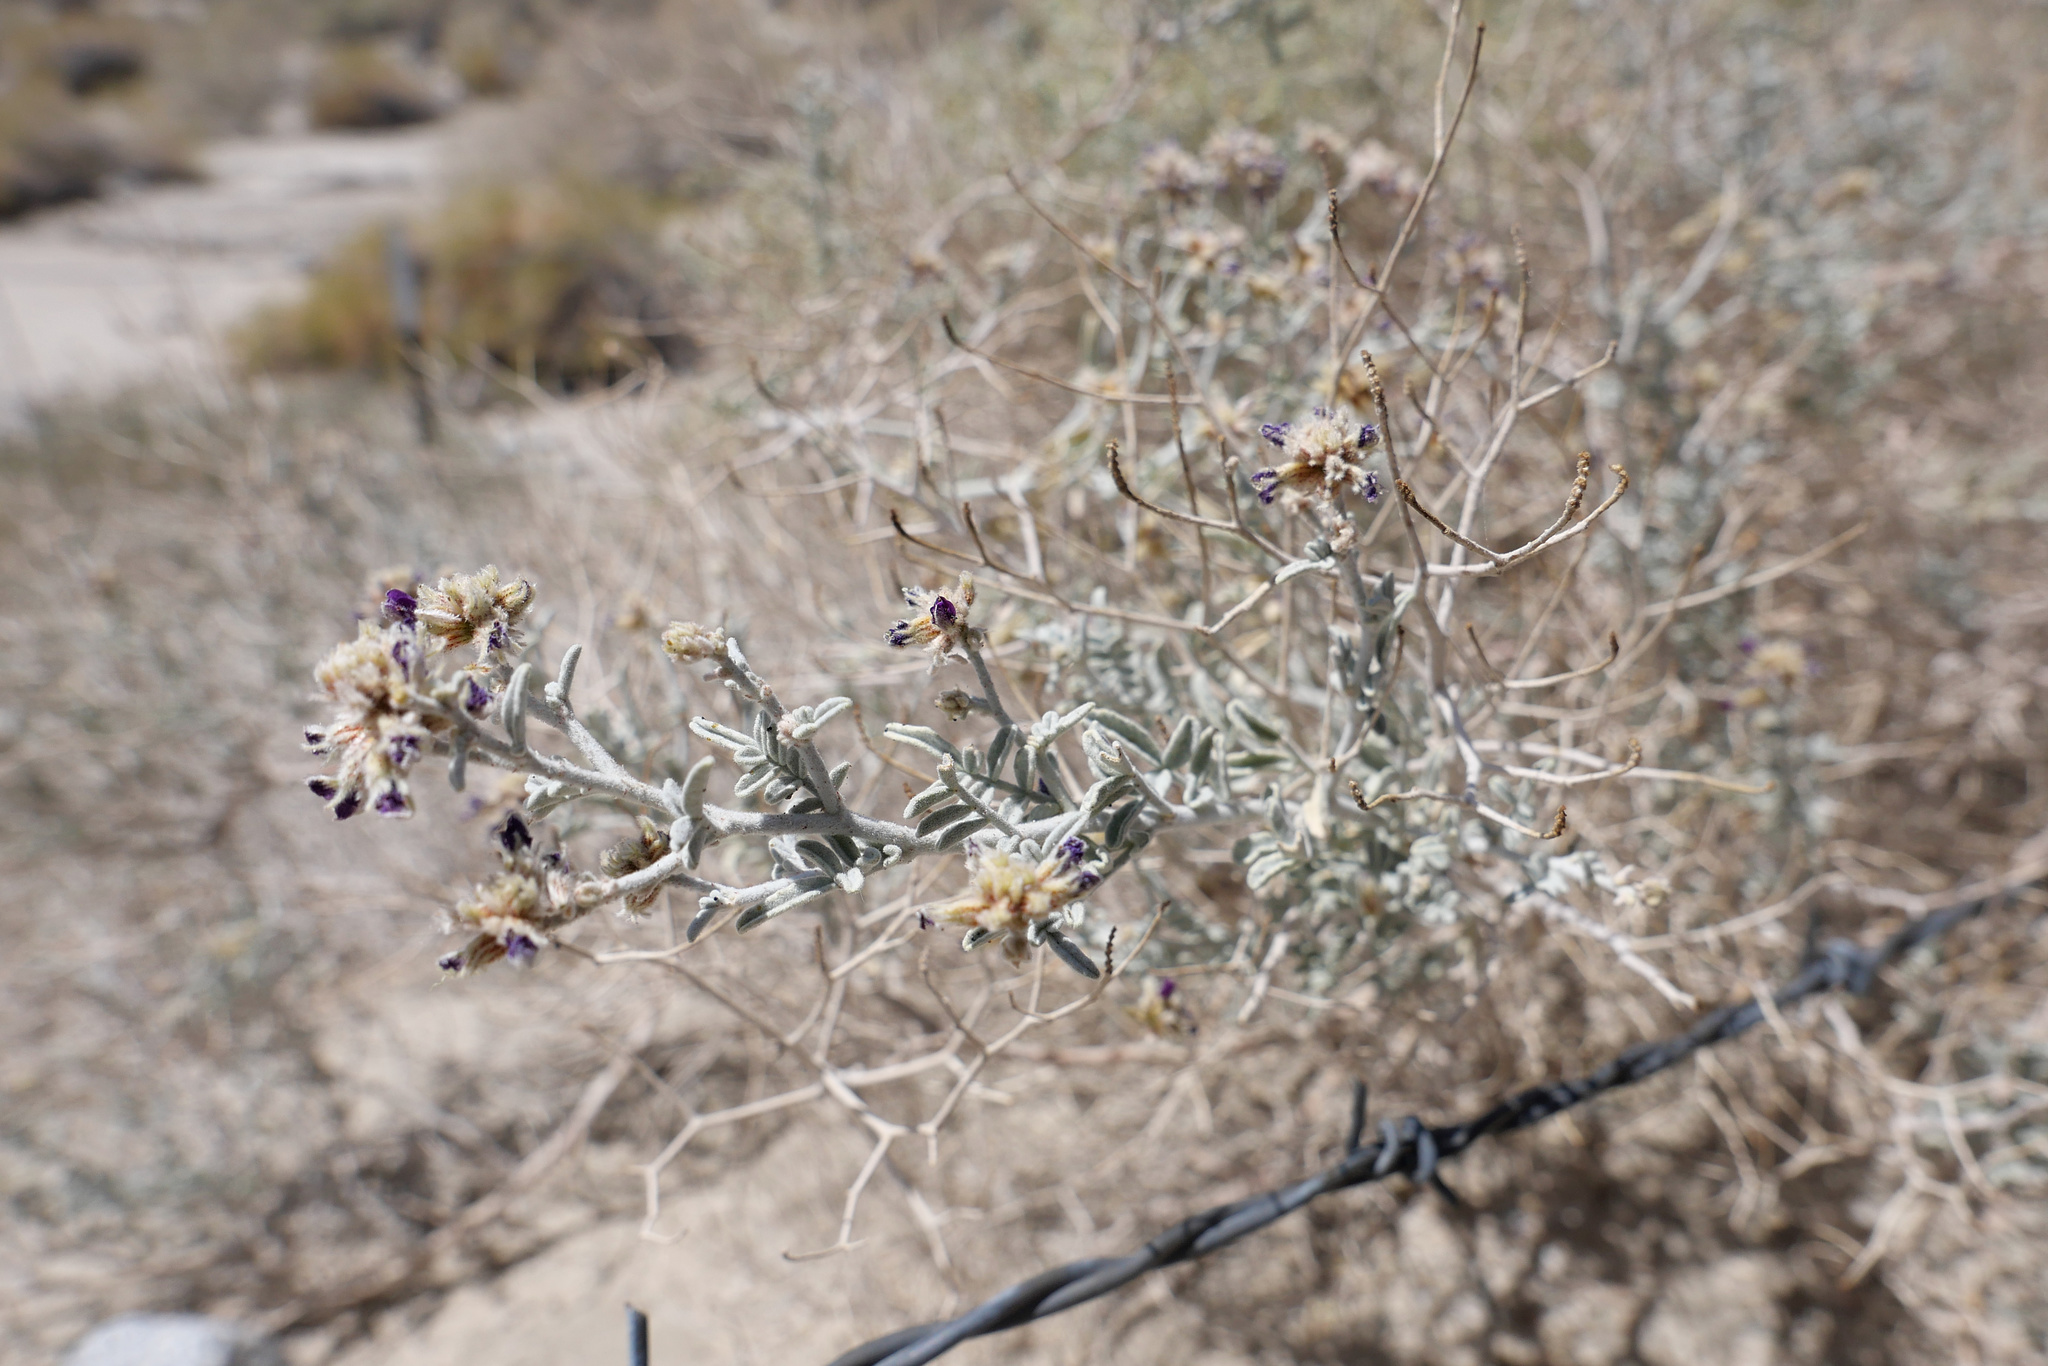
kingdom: Plantae
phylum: Tracheophyta
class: Magnoliopsida
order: Fabales
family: Fabaceae
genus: Psorothamnus
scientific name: Psorothamnus emoryi
